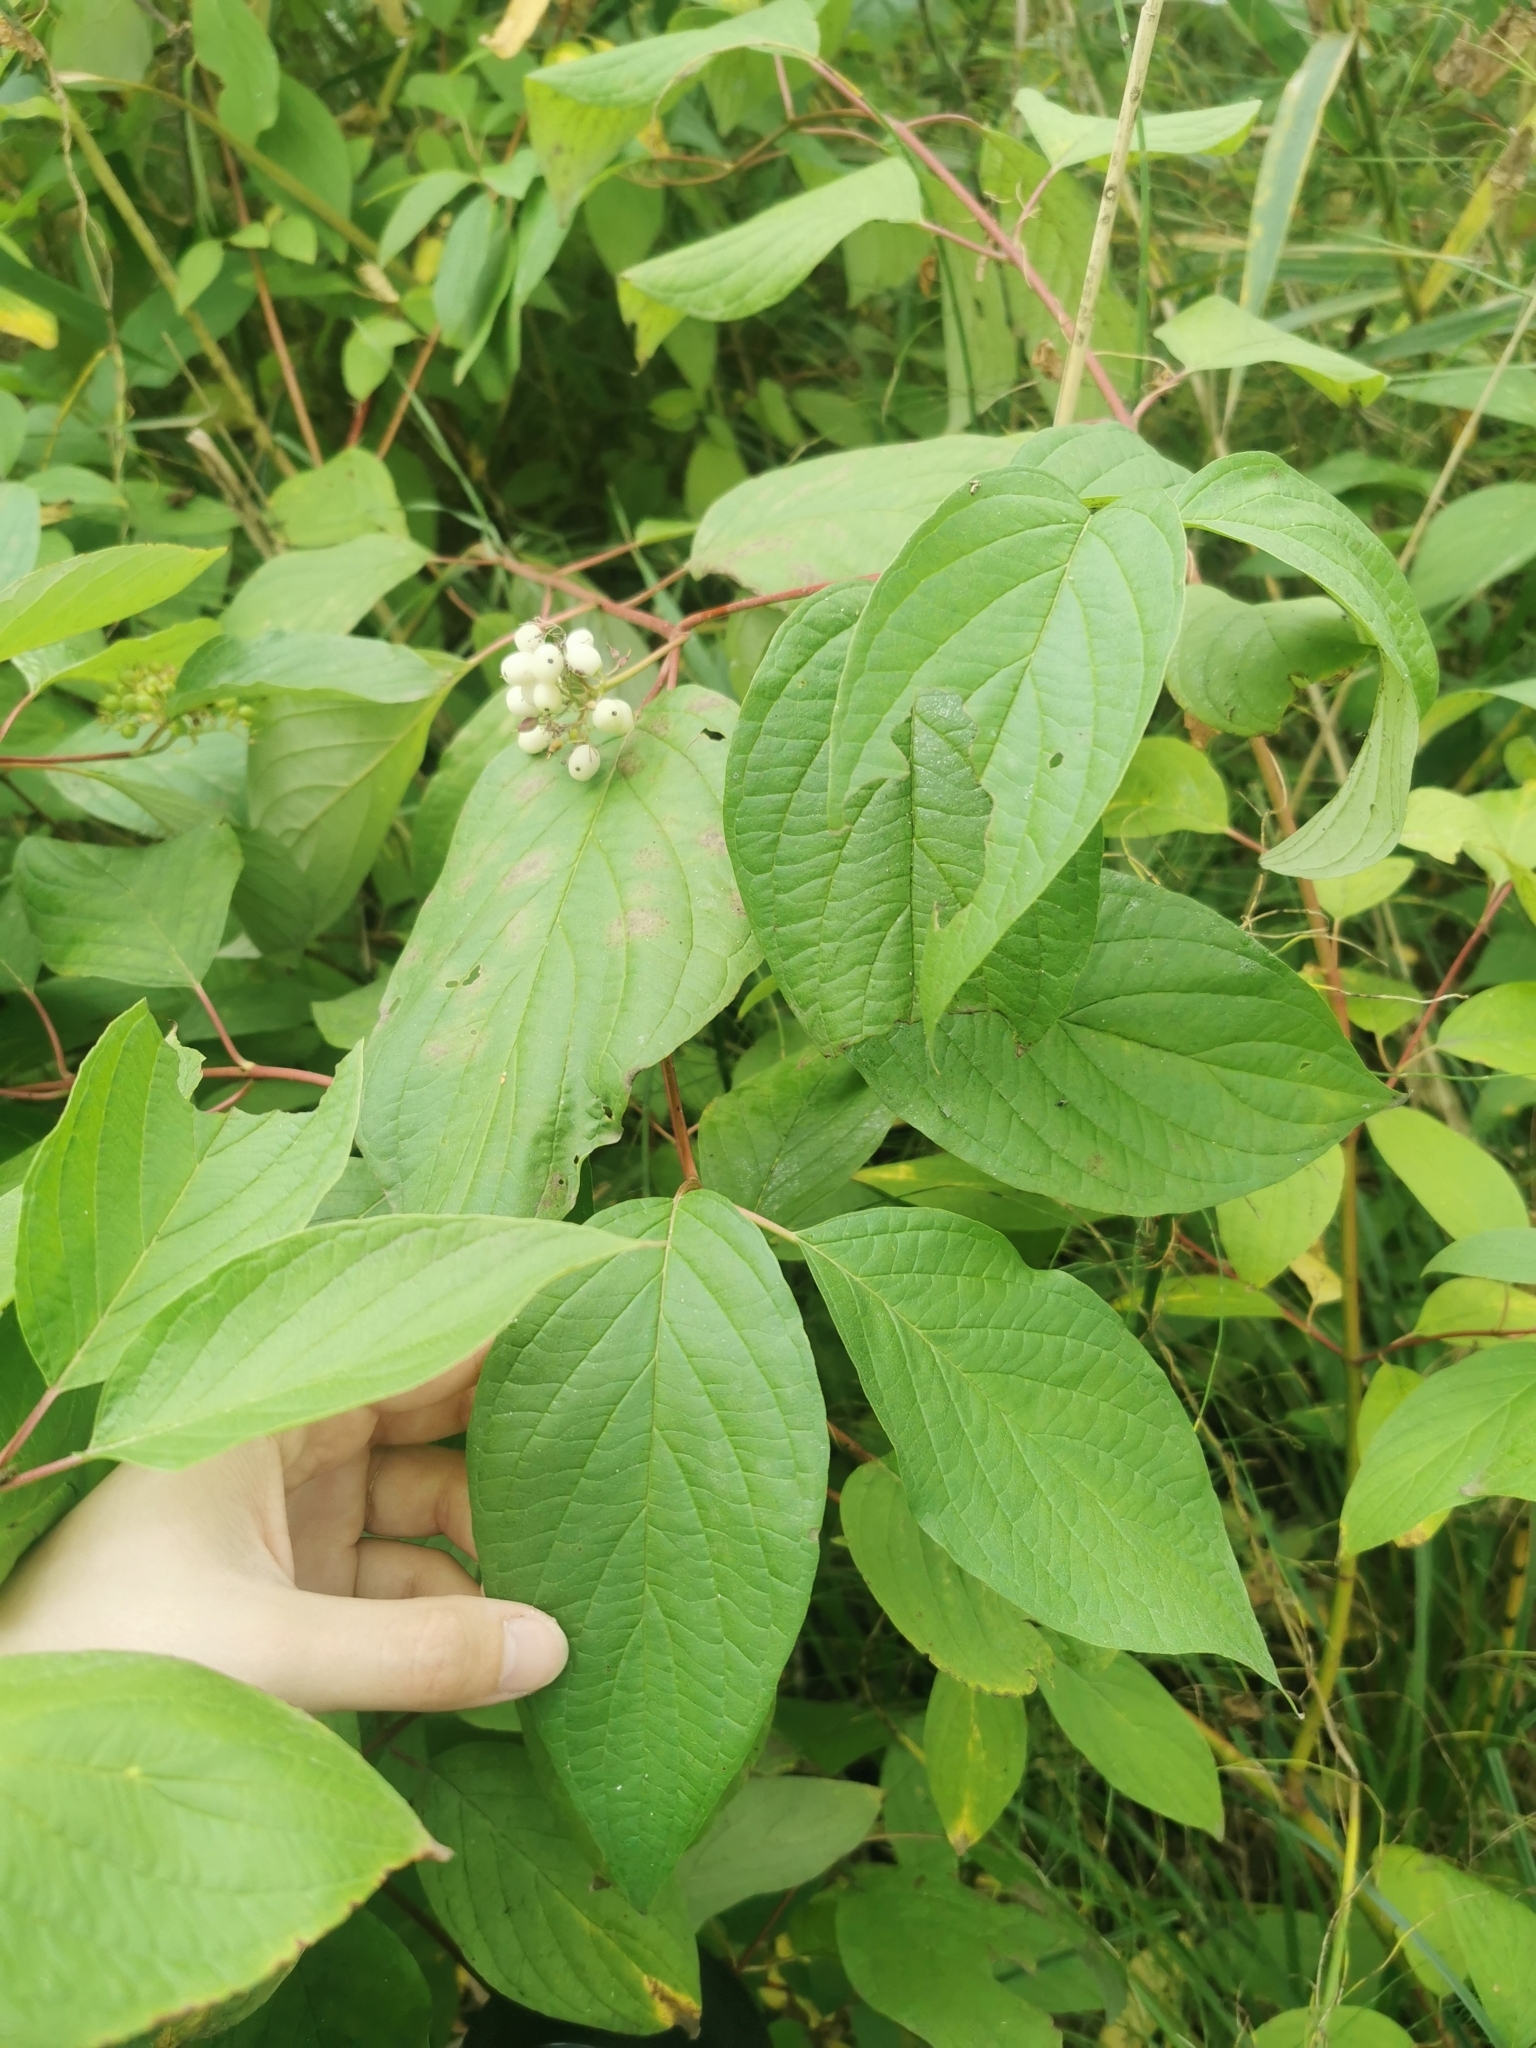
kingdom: Plantae
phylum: Tracheophyta
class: Magnoliopsida
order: Cornales
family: Cornaceae
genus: Cornus
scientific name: Cornus alba
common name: White dogwood
